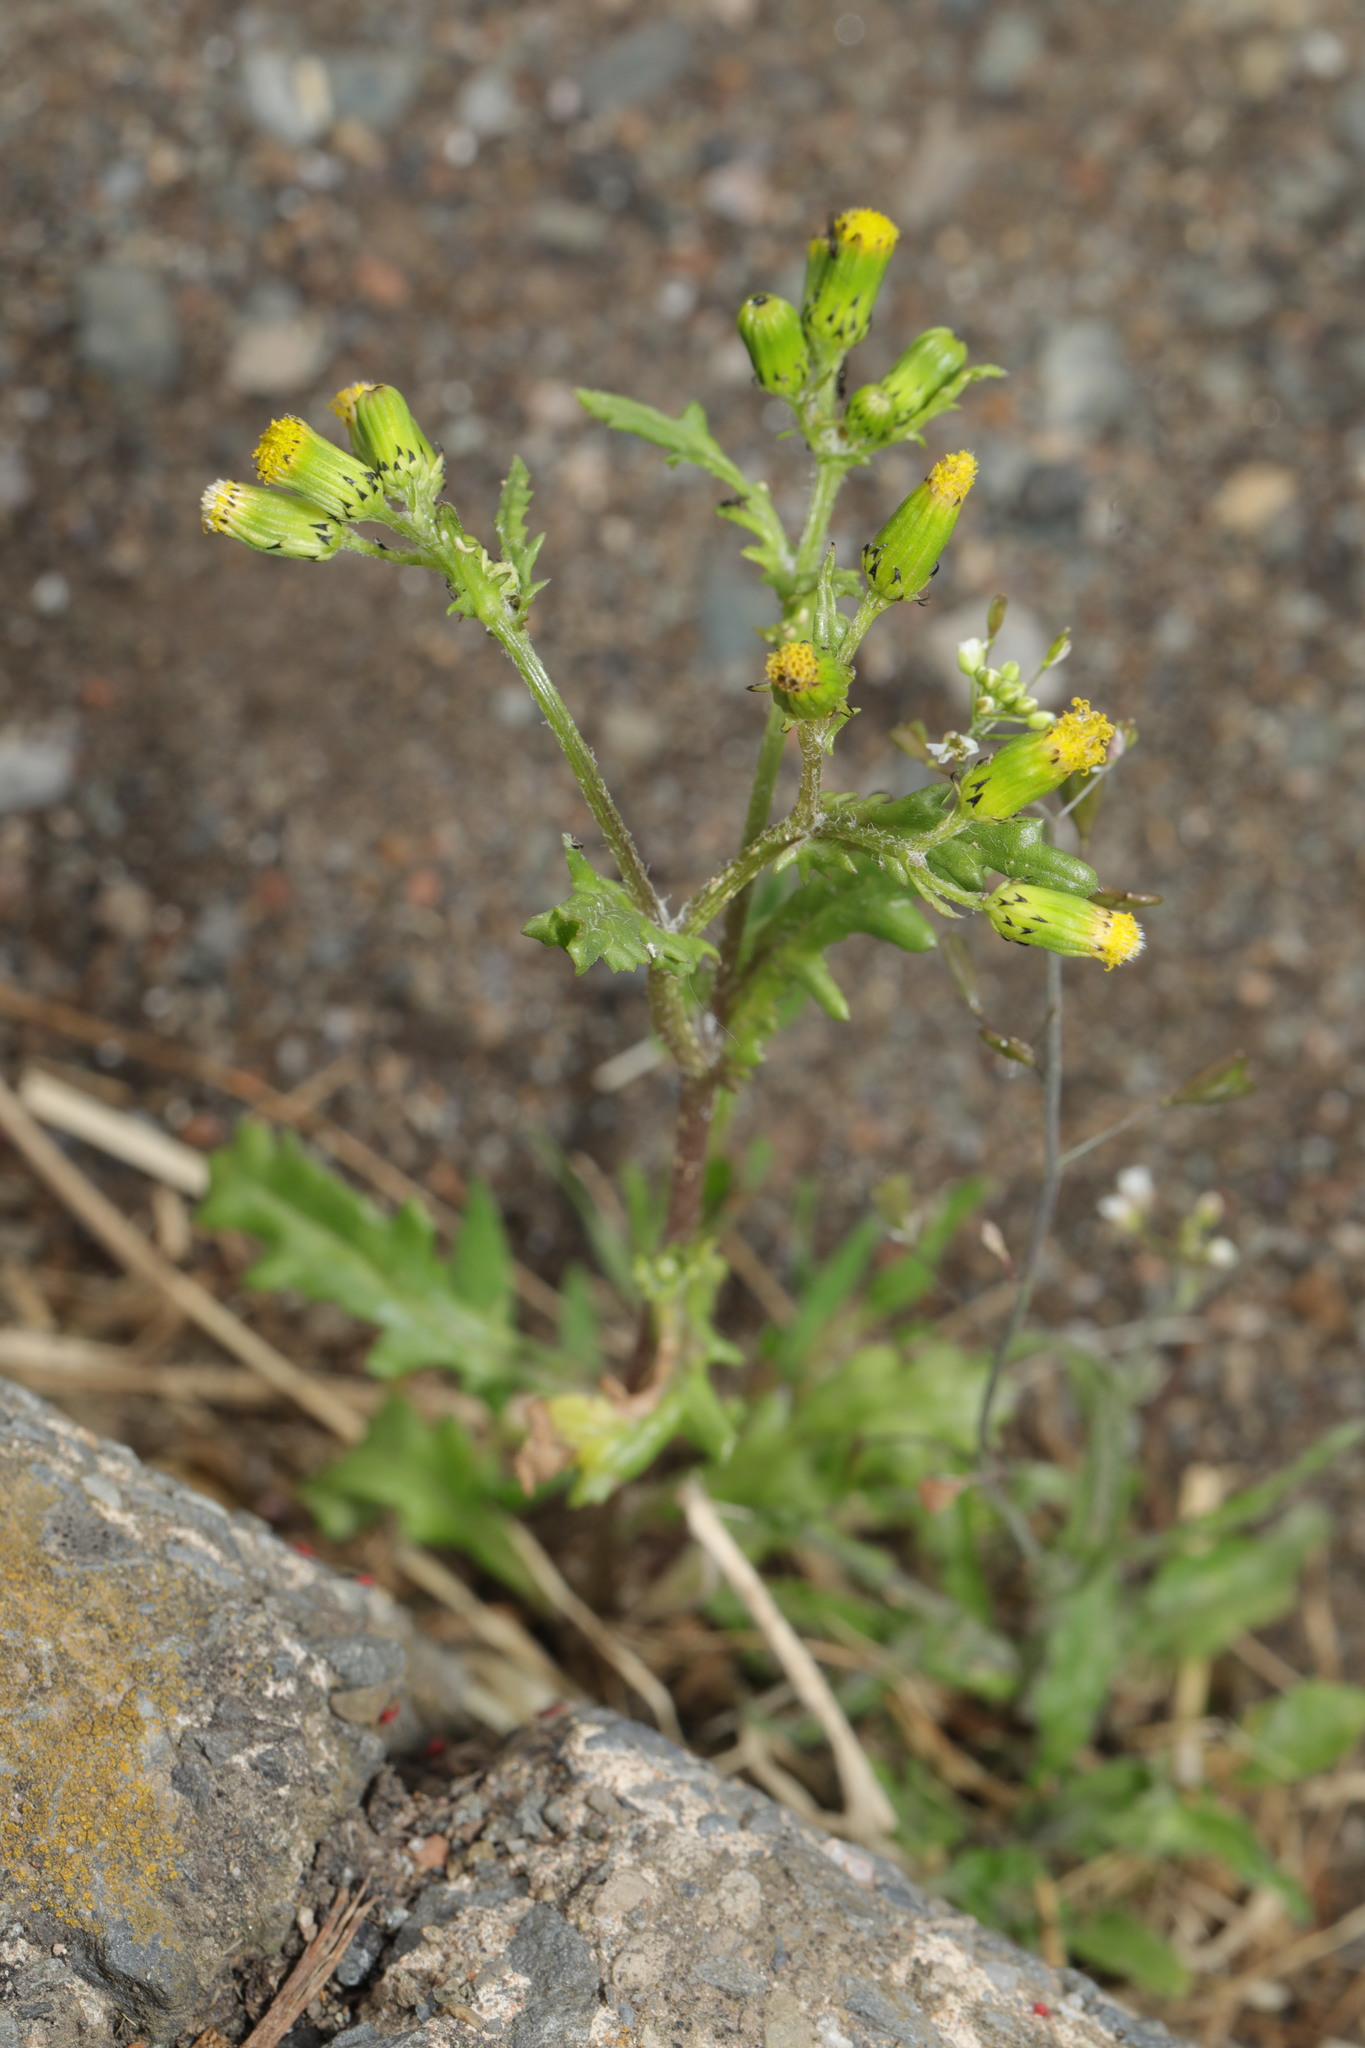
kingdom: Plantae
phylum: Tracheophyta
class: Magnoliopsida
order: Asterales
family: Asteraceae
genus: Senecio
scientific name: Senecio vulgaris
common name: Old-man-in-the-spring
